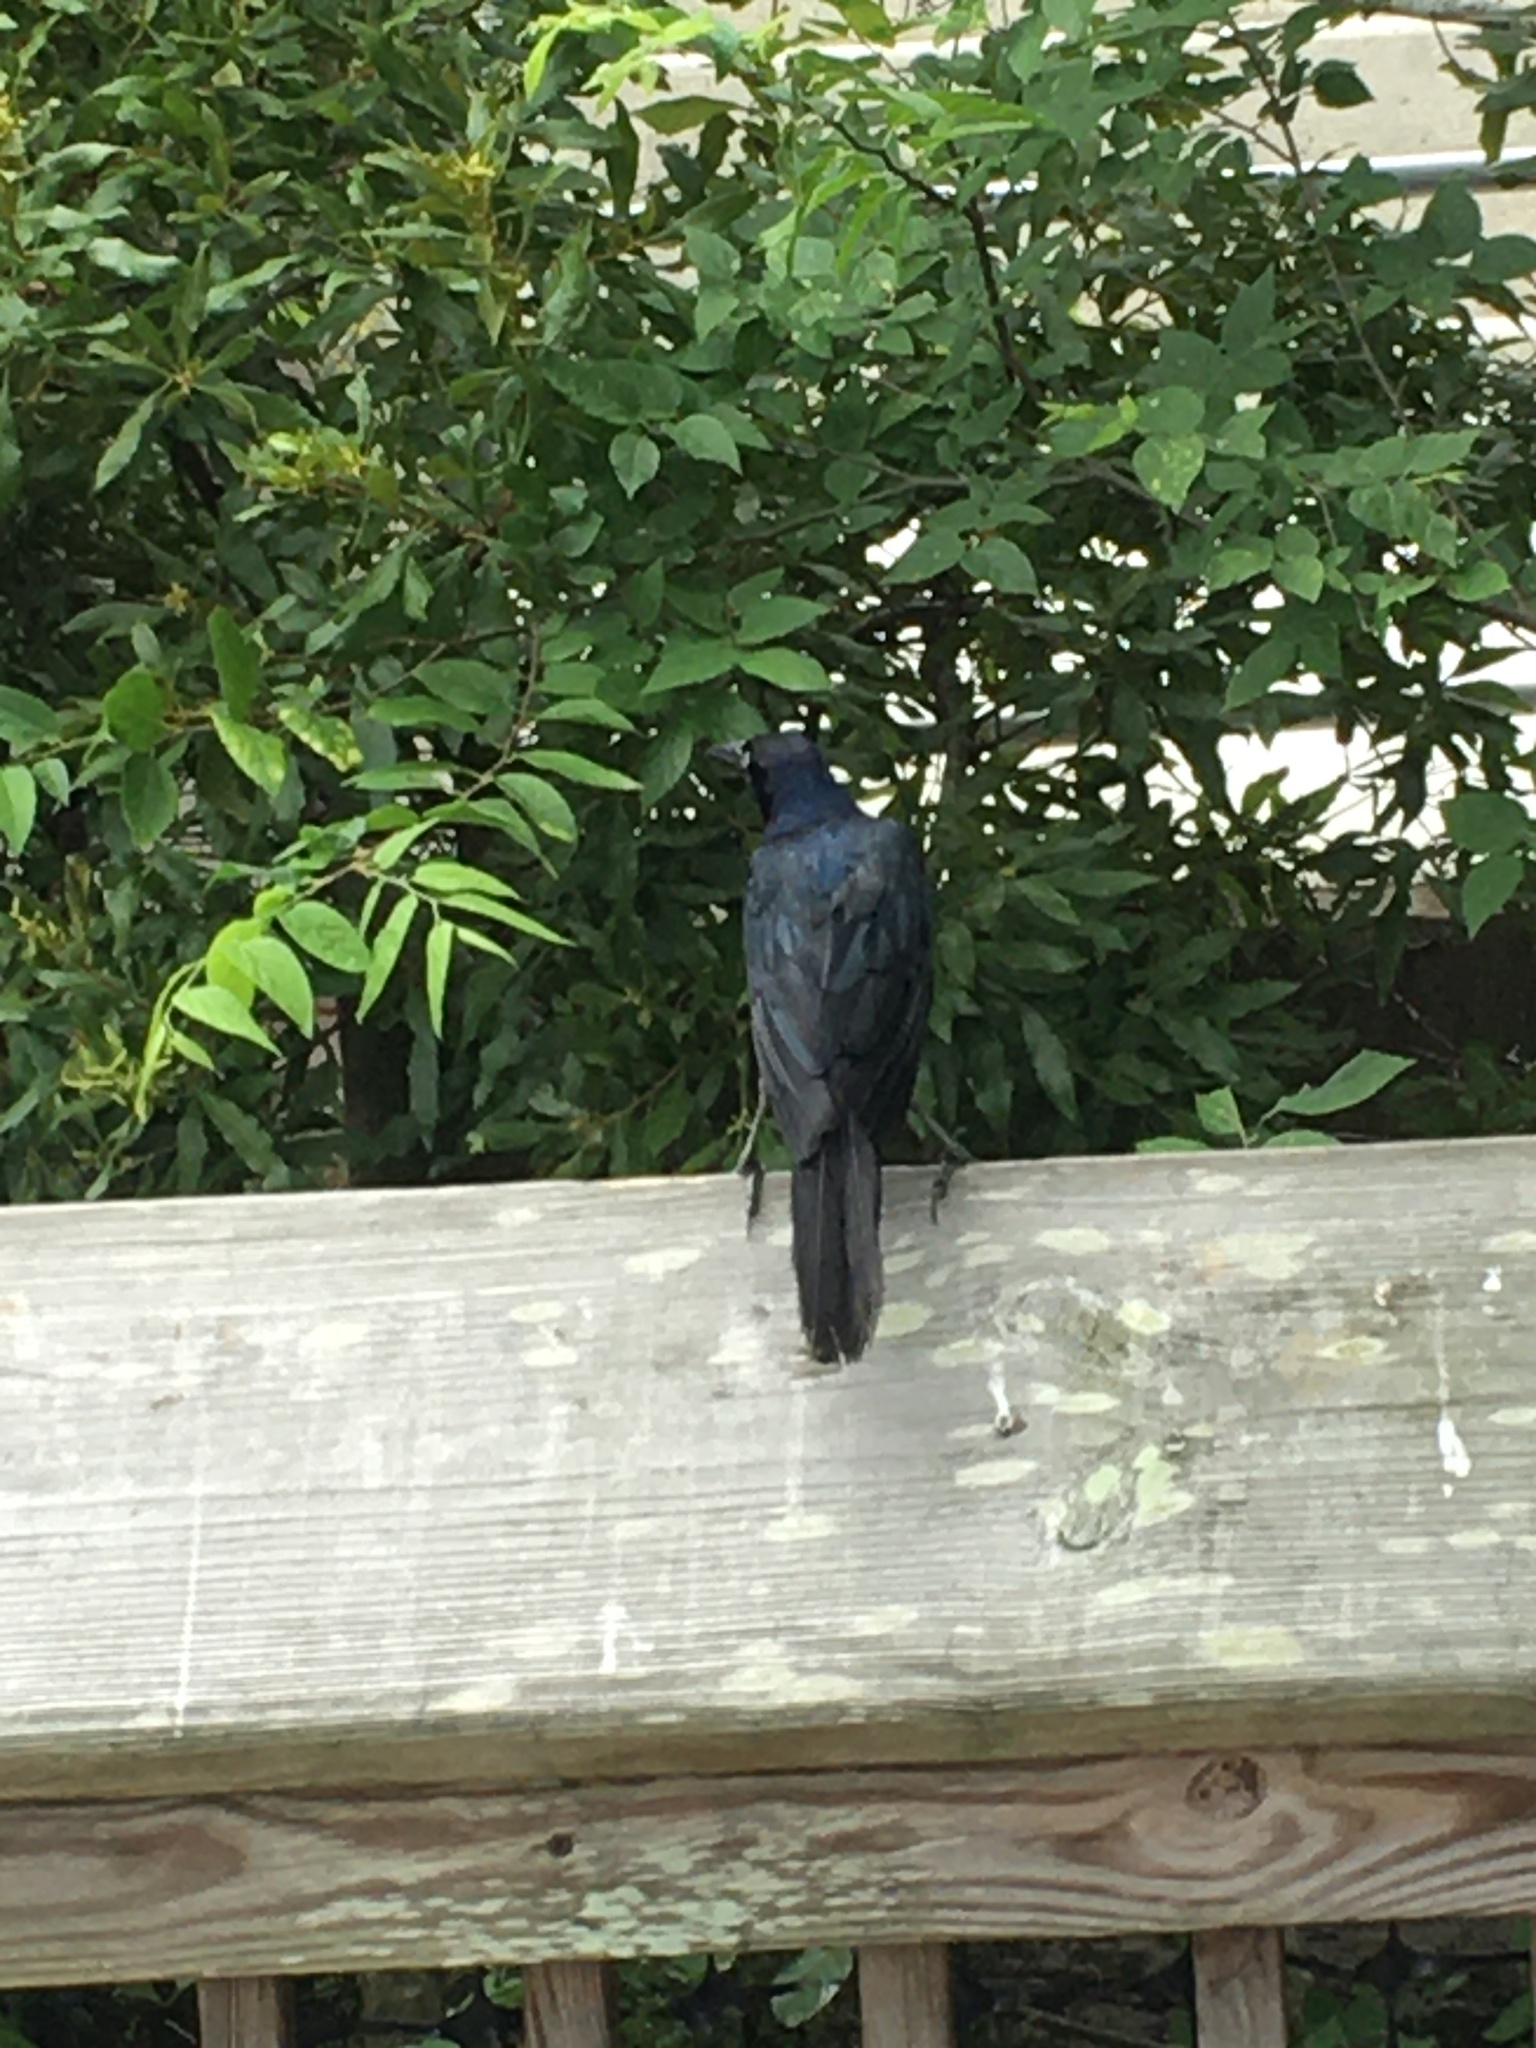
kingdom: Animalia
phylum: Chordata
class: Aves
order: Passeriformes
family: Icteridae
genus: Quiscalus
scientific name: Quiscalus major
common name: Boat-tailed grackle
